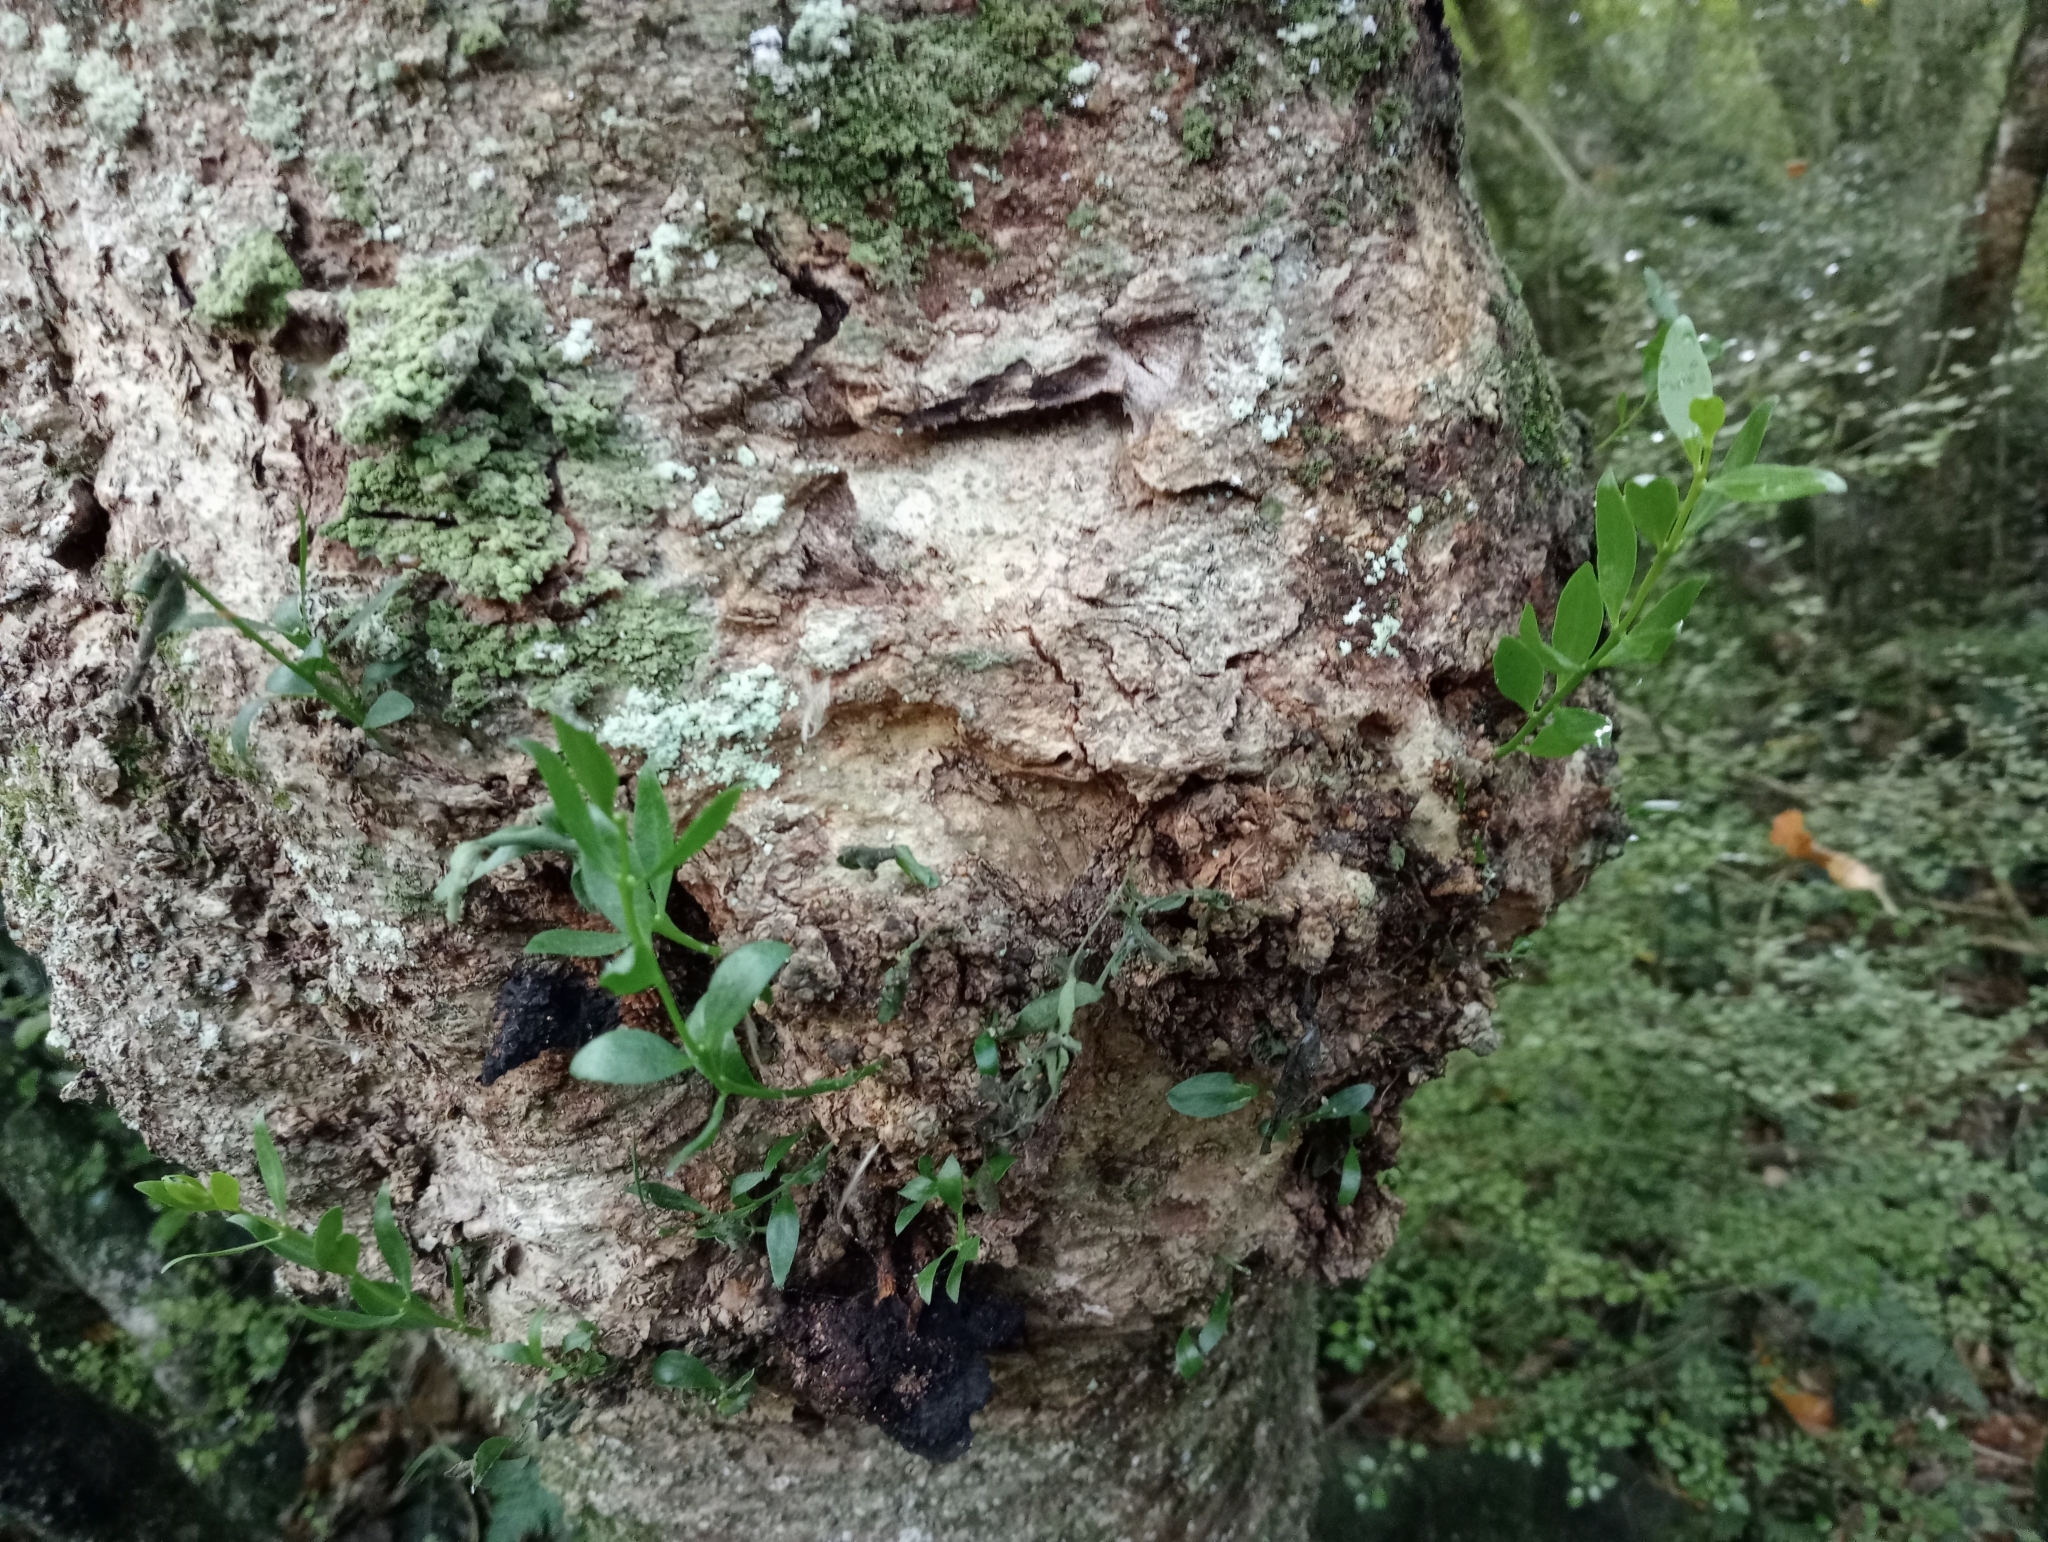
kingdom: Plantae
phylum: Tracheophyta
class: Magnoliopsida
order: Santalales
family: Loranthaceae
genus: Tupeia
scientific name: Tupeia antarctica
